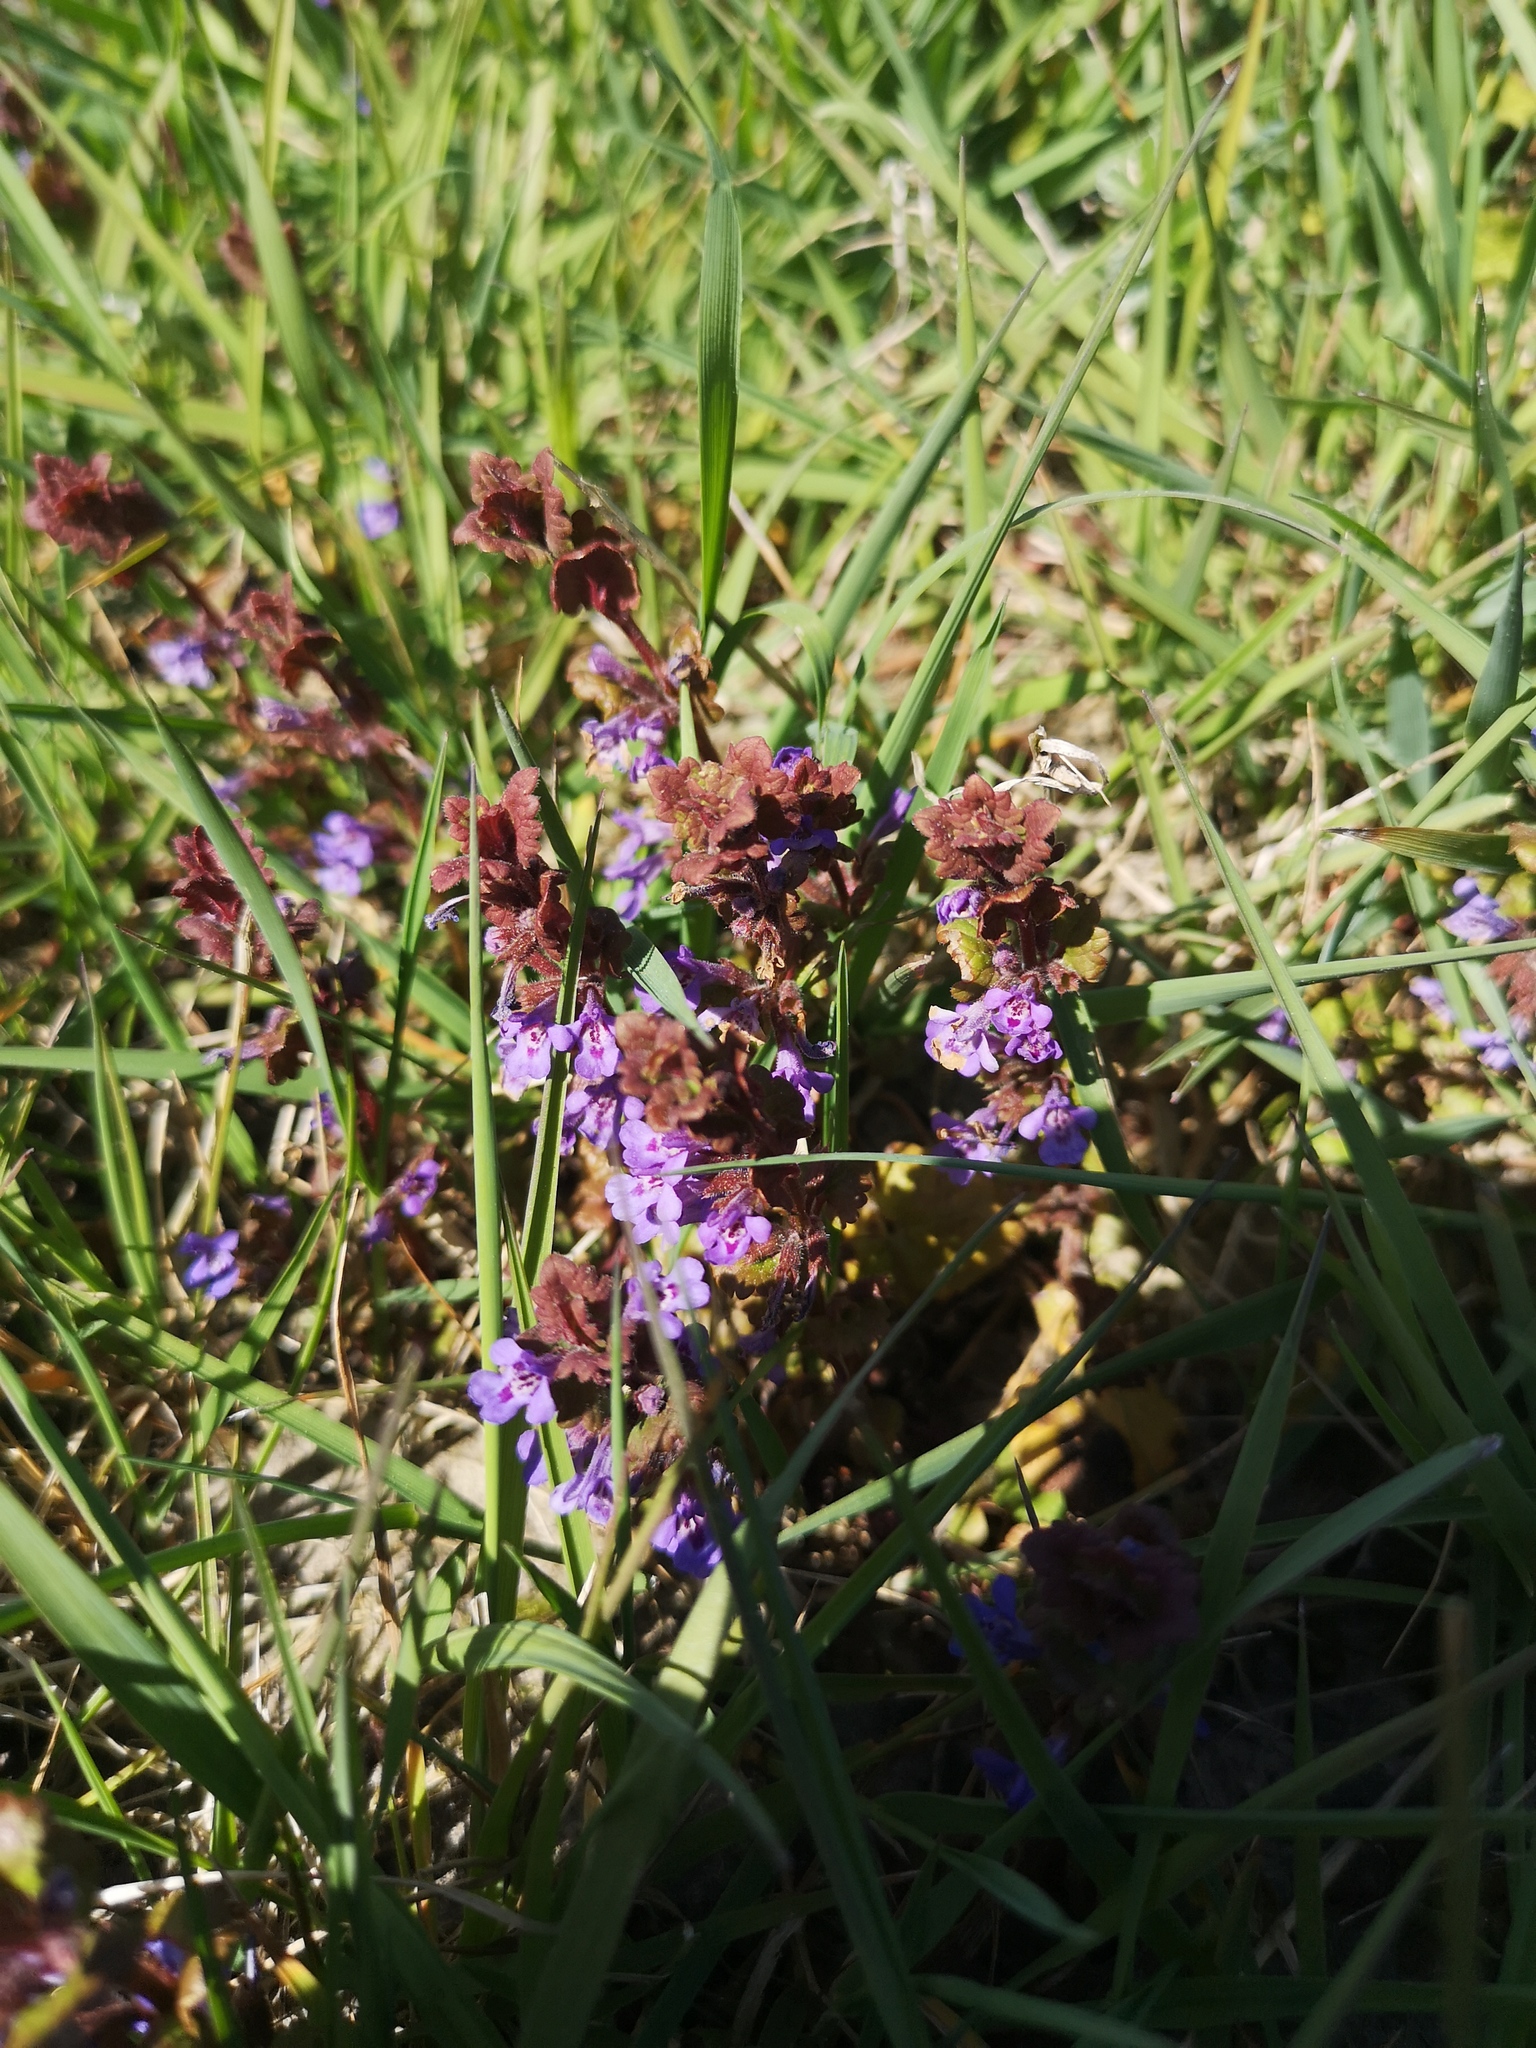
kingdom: Plantae
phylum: Tracheophyta
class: Magnoliopsida
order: Lamiales
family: Lamiaceae
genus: Glechoma
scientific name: Glechoma hederacea
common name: Ground ivy
